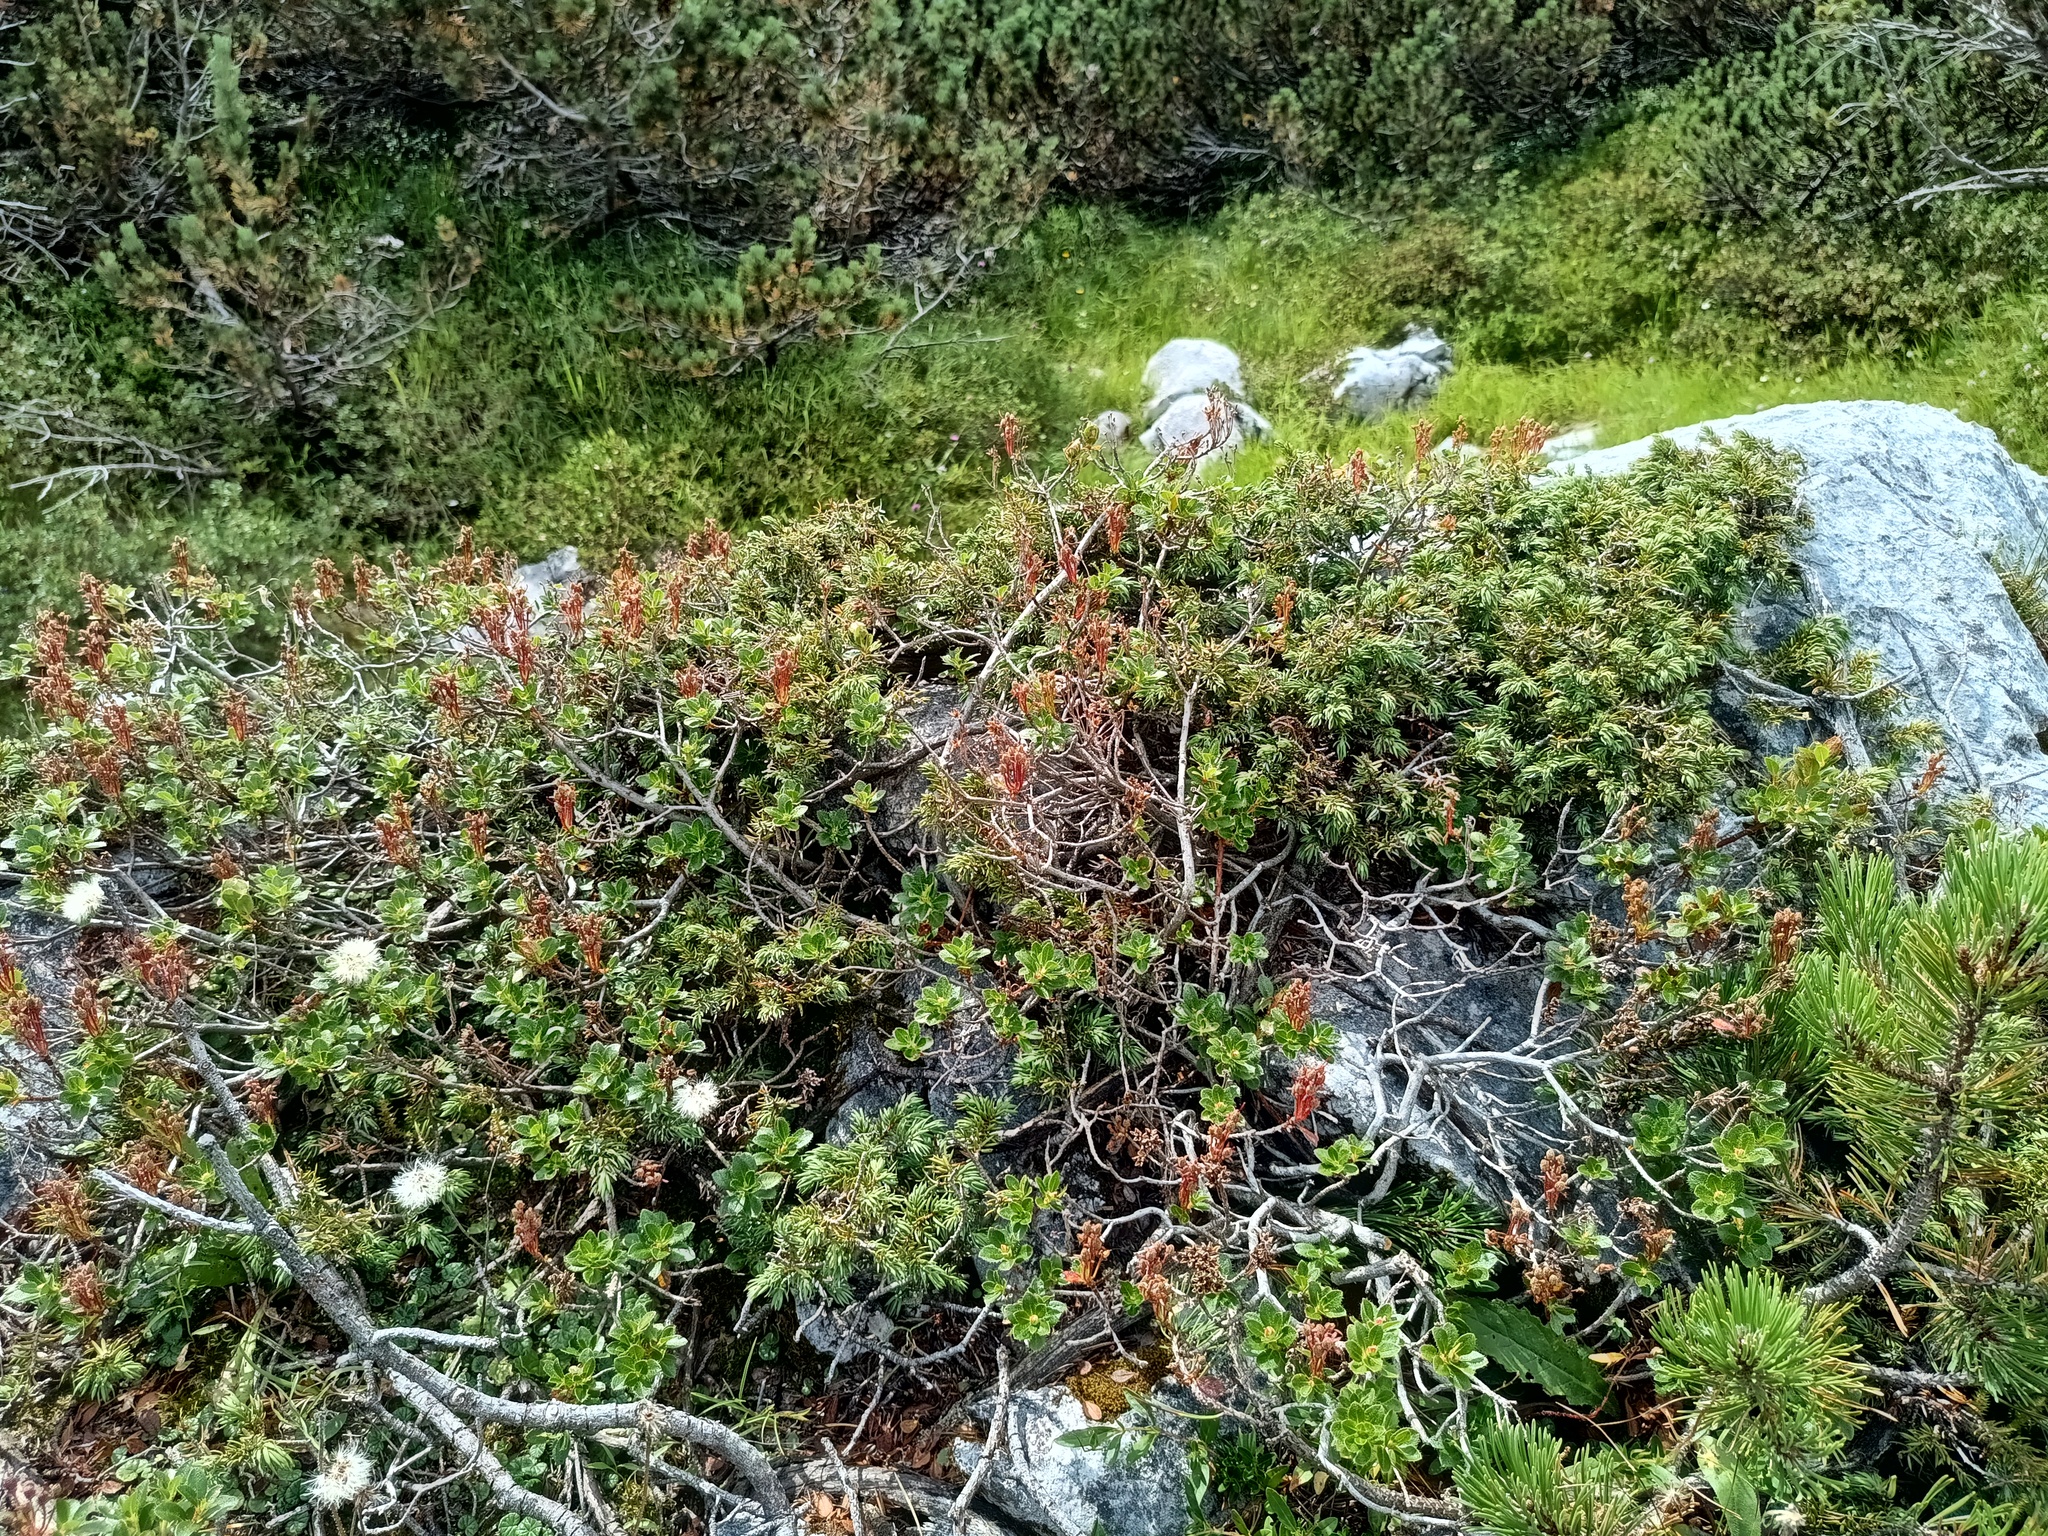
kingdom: Plantae
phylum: Tracheophyta
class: Magnoliopsida
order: Ericales
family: Ericaceae
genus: Rhododendron
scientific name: Rhododendron hirsutum
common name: Hairy alpenrose
